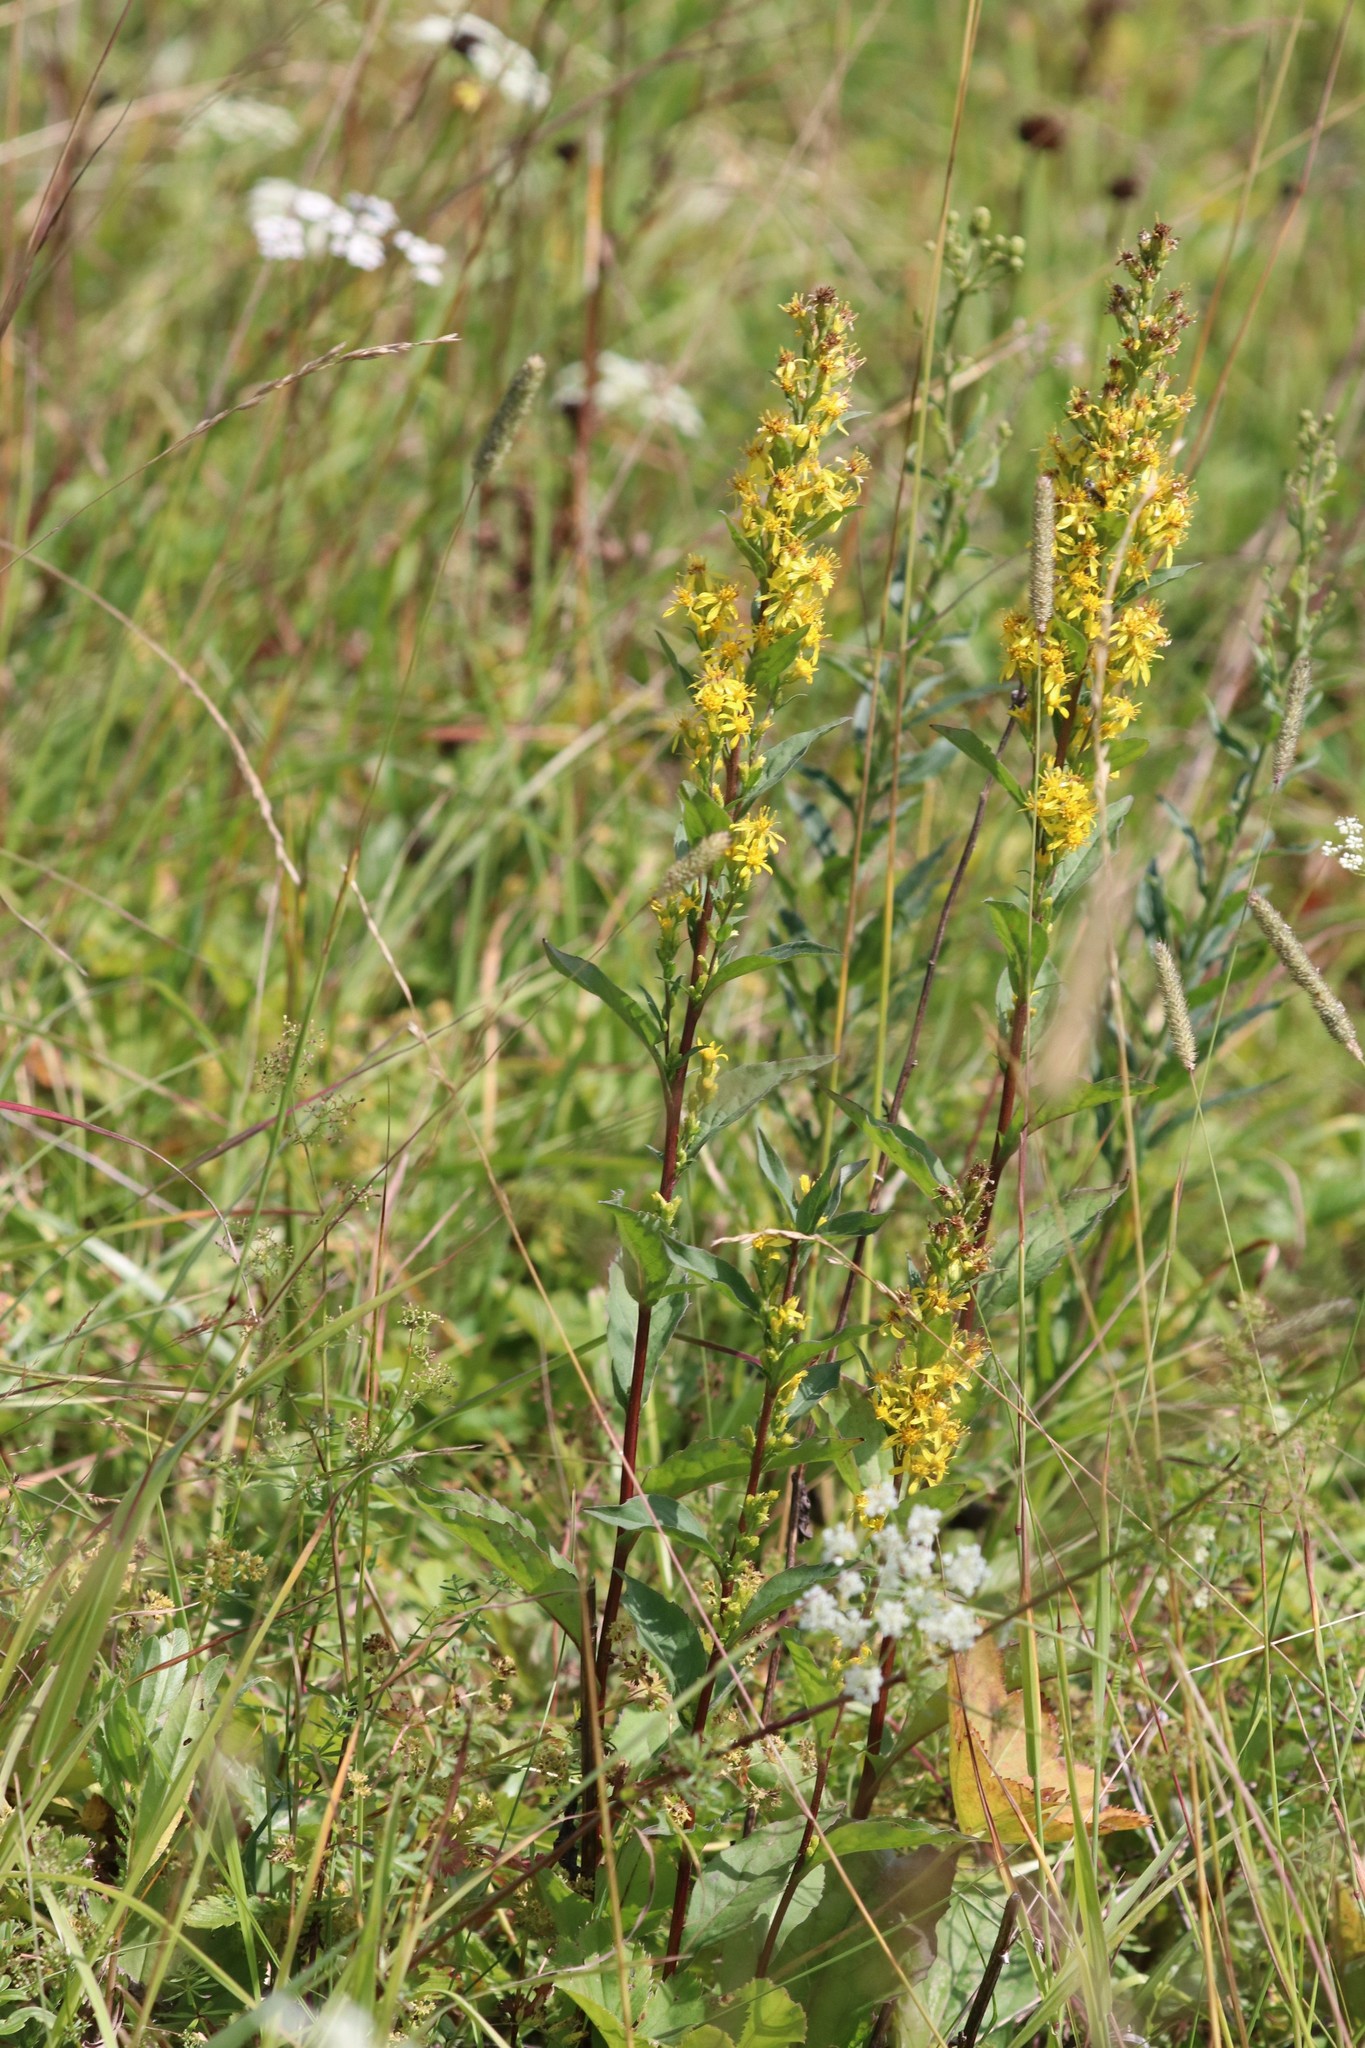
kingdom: Plantae
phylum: Tracheophyta
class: Magnoliopsida
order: Asterales
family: Asteraceae
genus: Solidago
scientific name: Solidago virgaurea
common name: Goldenrod
